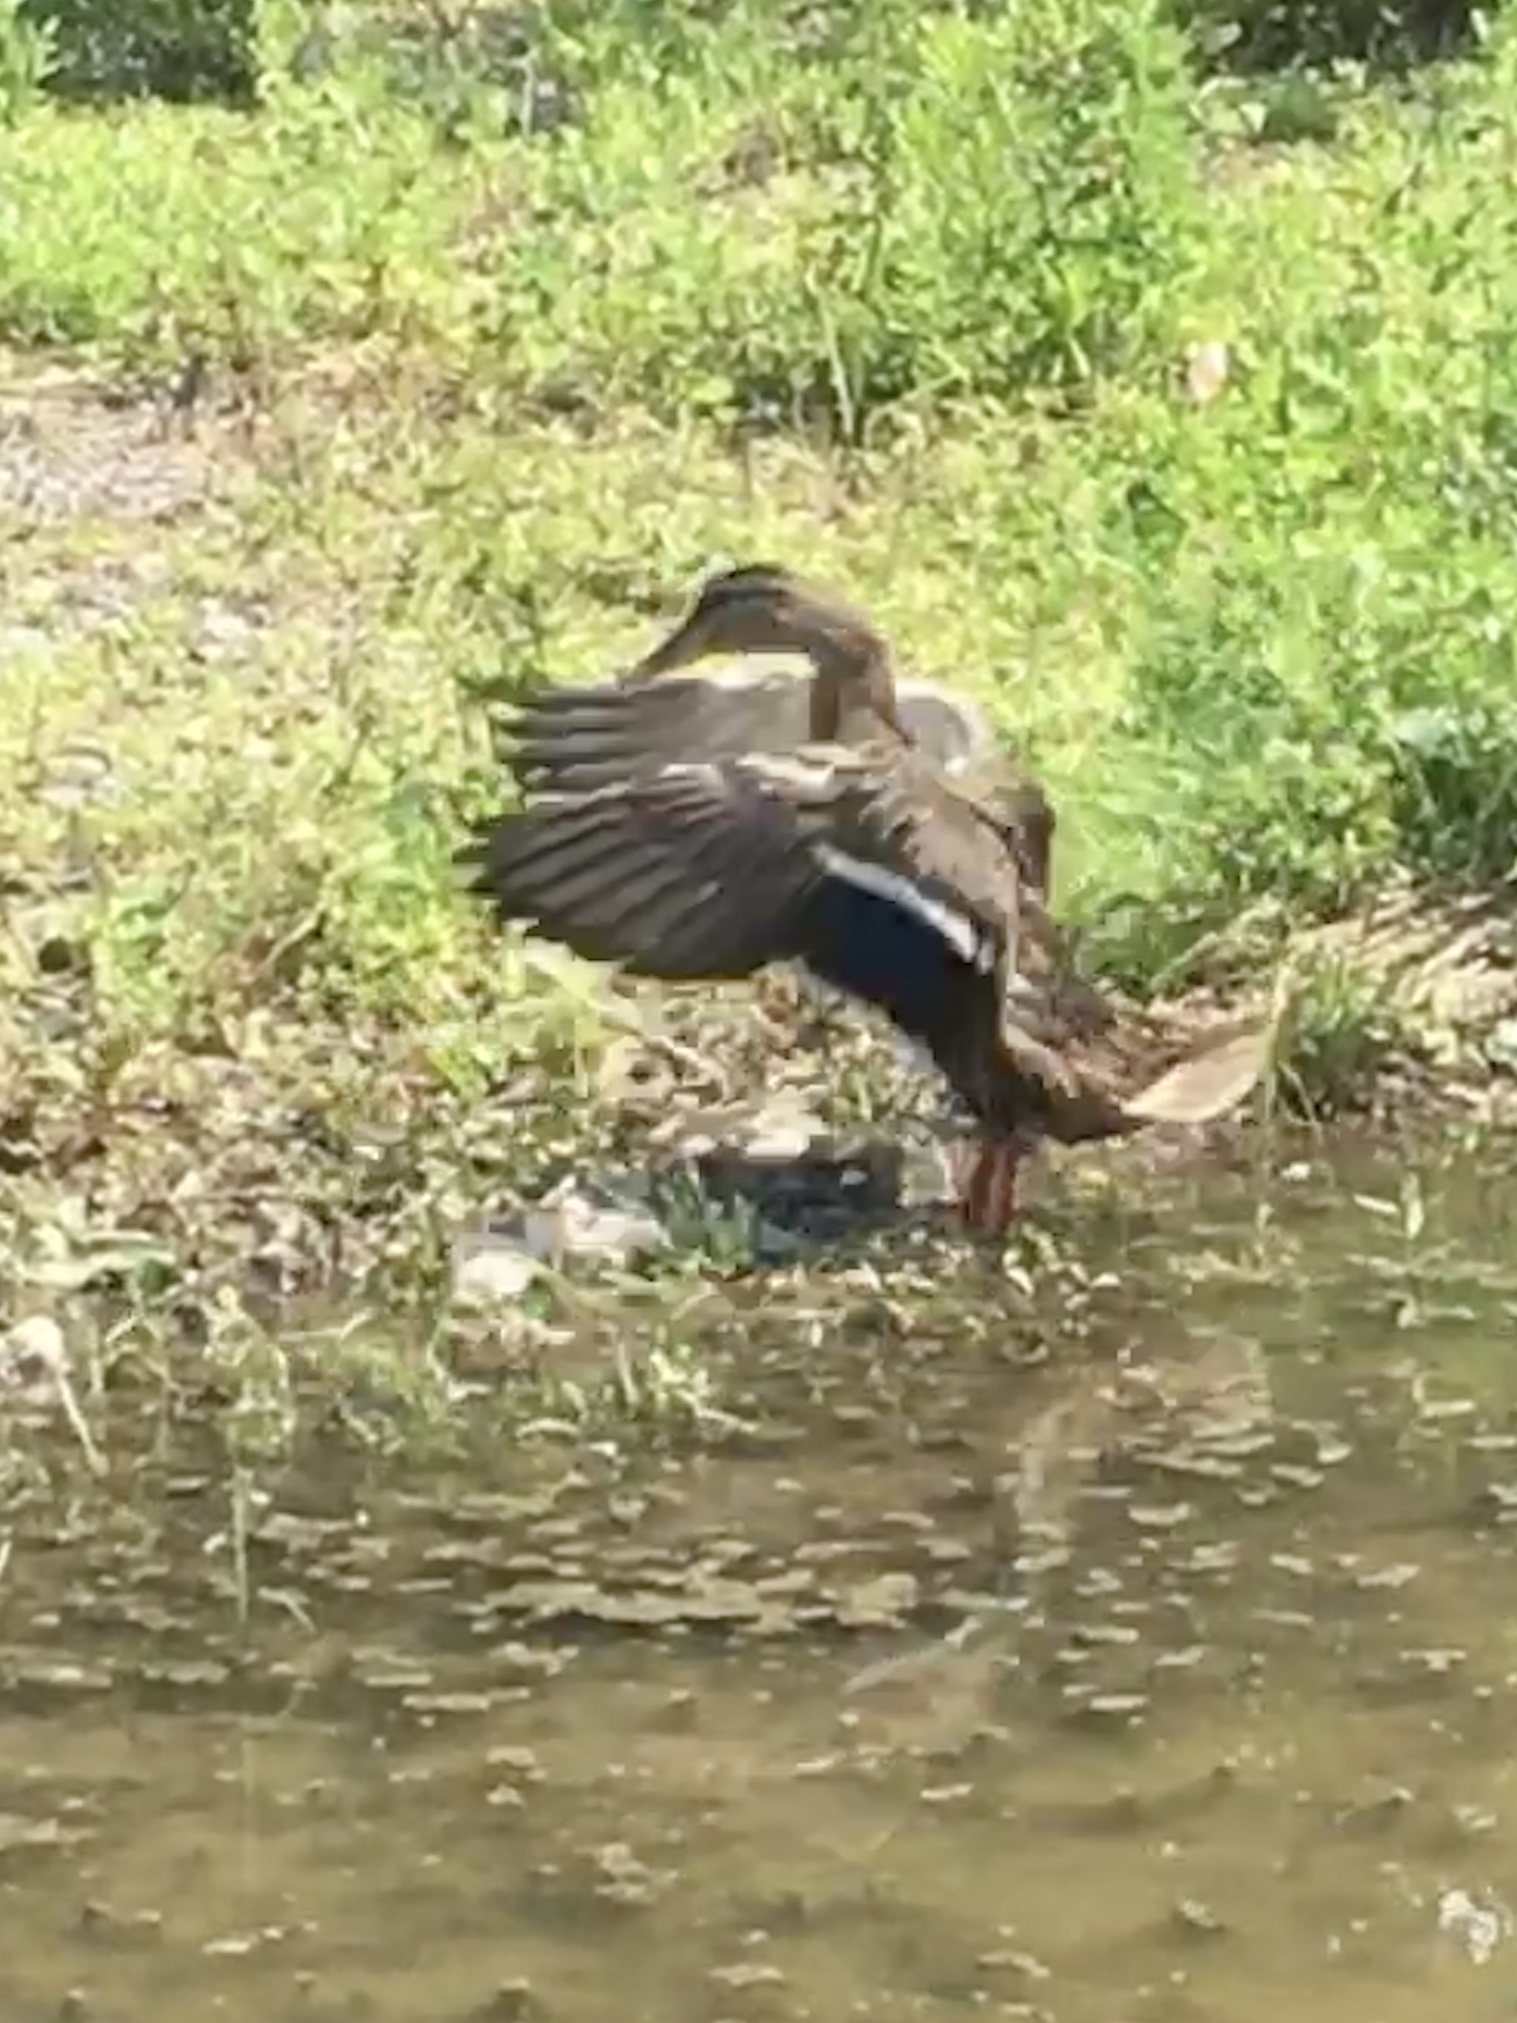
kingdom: Animalia
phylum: Chordata
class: Aves
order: Anseriformes
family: Anatidae
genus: Anas
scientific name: Anas platyrhynchos
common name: Mallard
